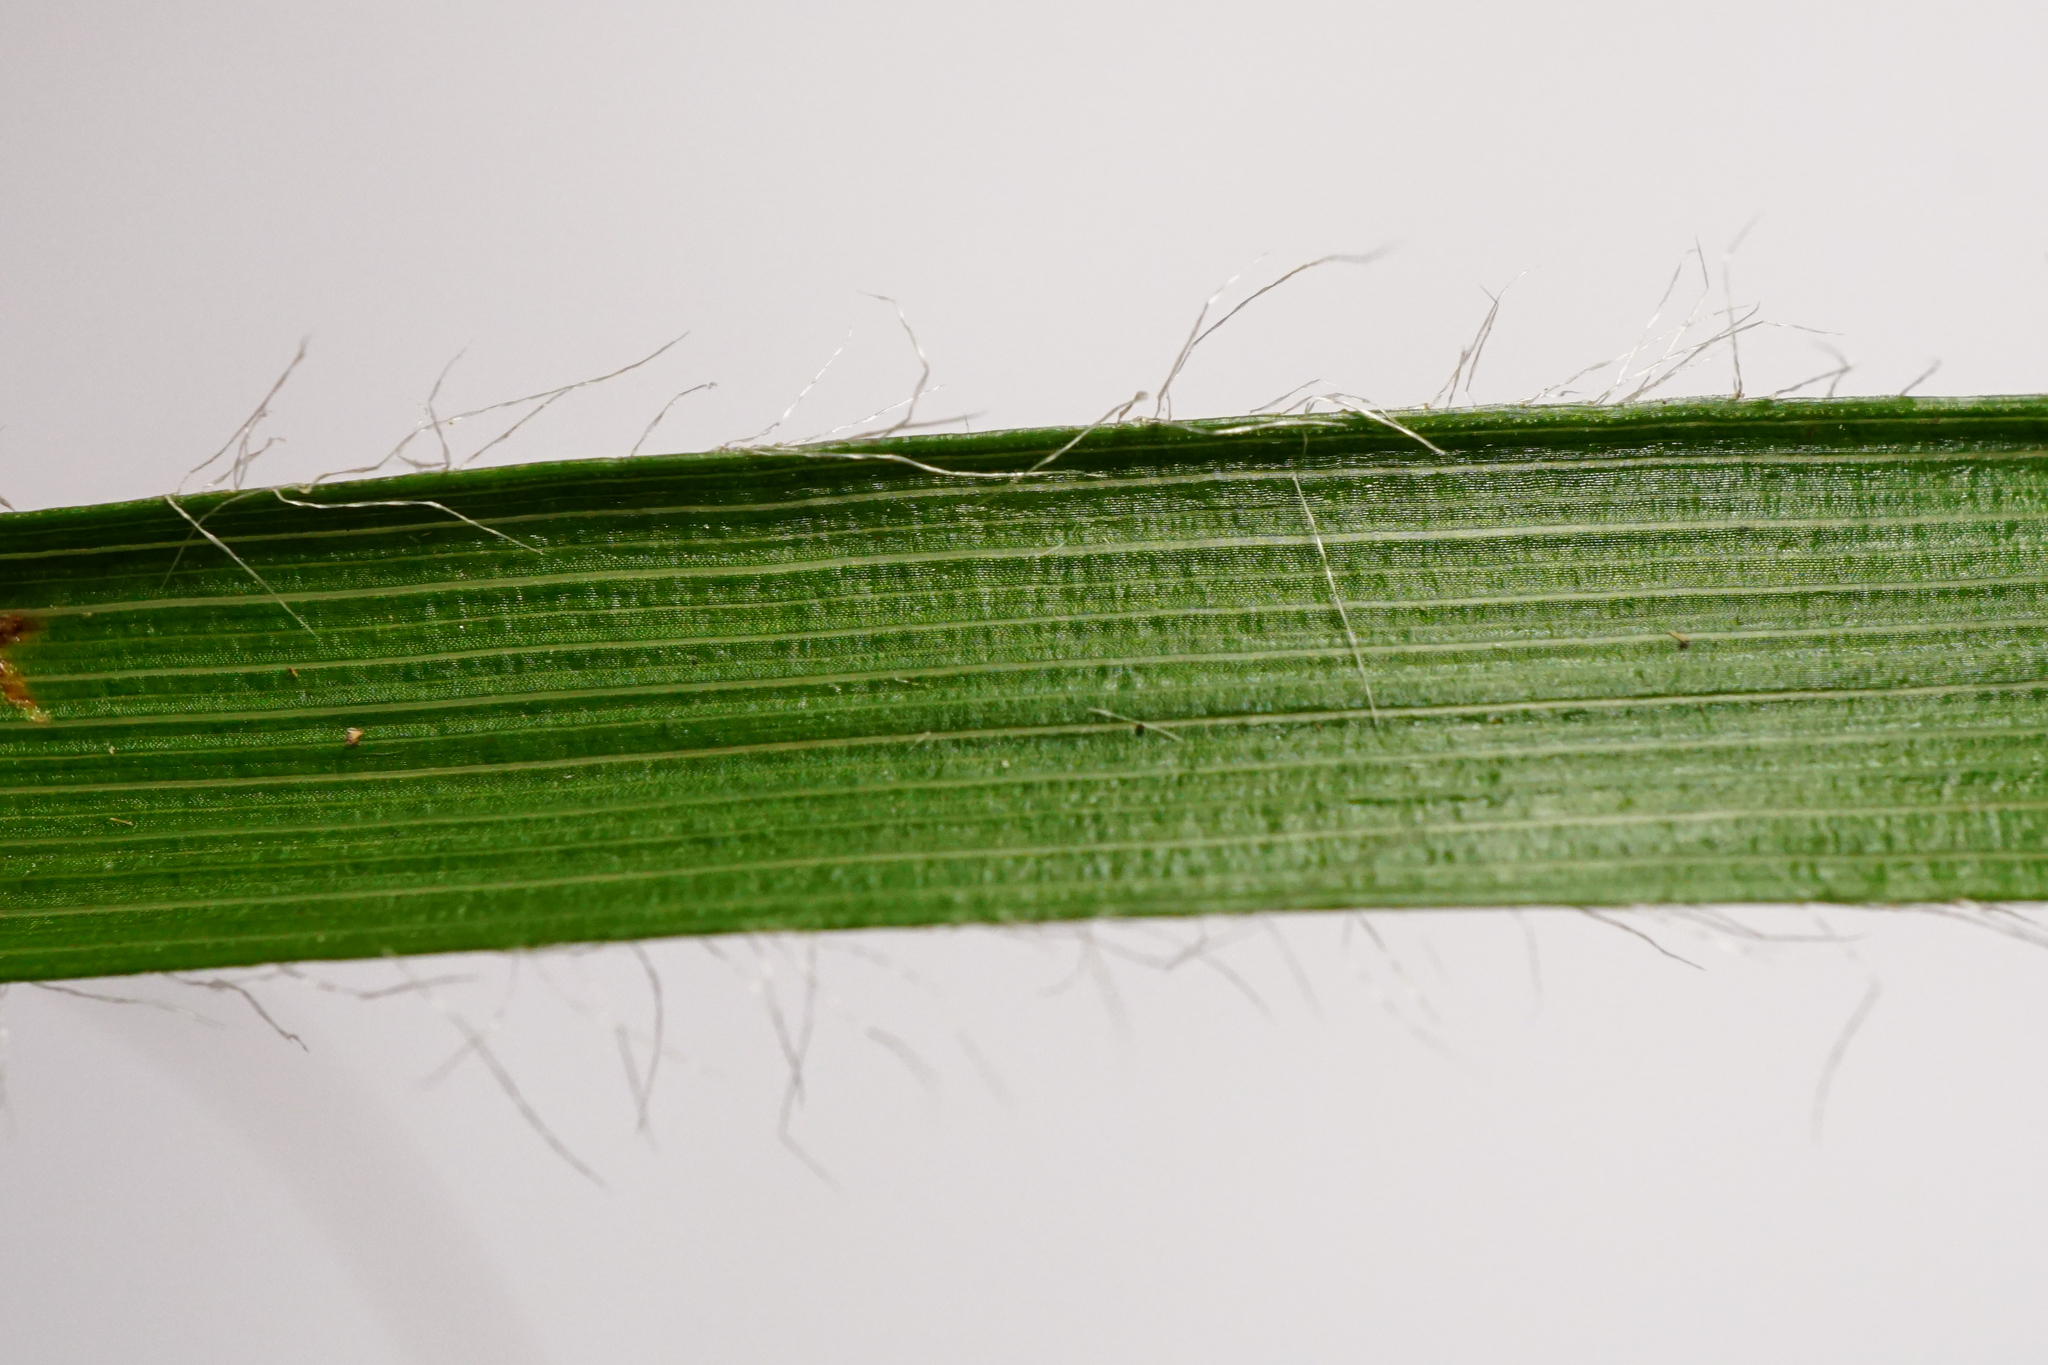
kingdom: Plantae
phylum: Tracheophyta
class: Liliopsida
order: Poales
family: Juncaceae
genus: Luzula
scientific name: Luzula luzuloides
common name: White wood-rush
